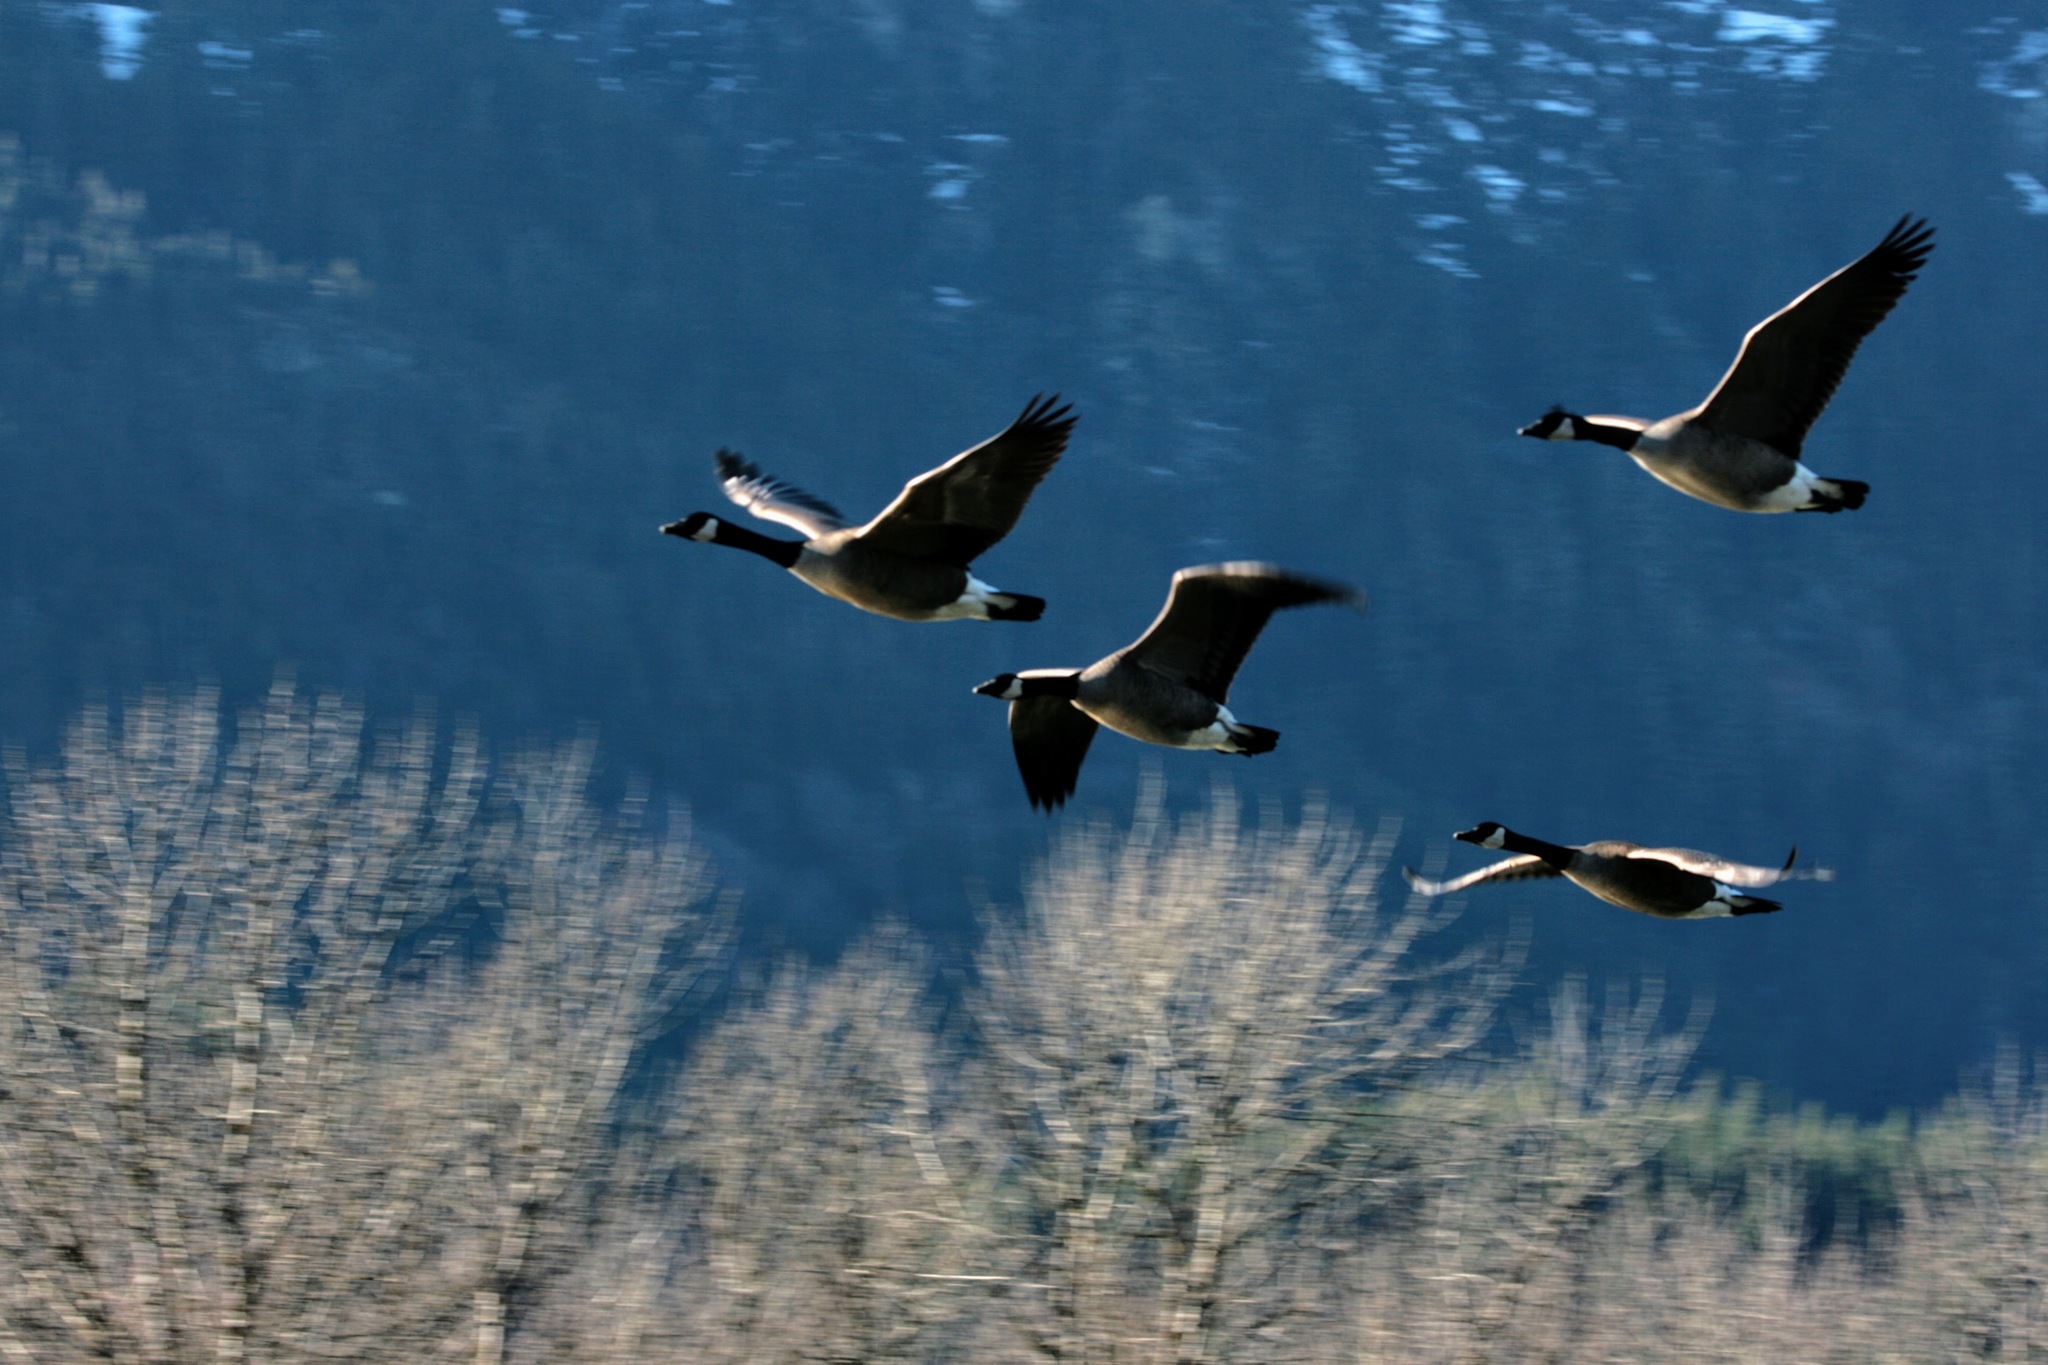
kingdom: Animalia
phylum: Chordata
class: Aves
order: Anseriformes
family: Anatidae
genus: Branta
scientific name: Branta canadensis
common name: Canada goose
